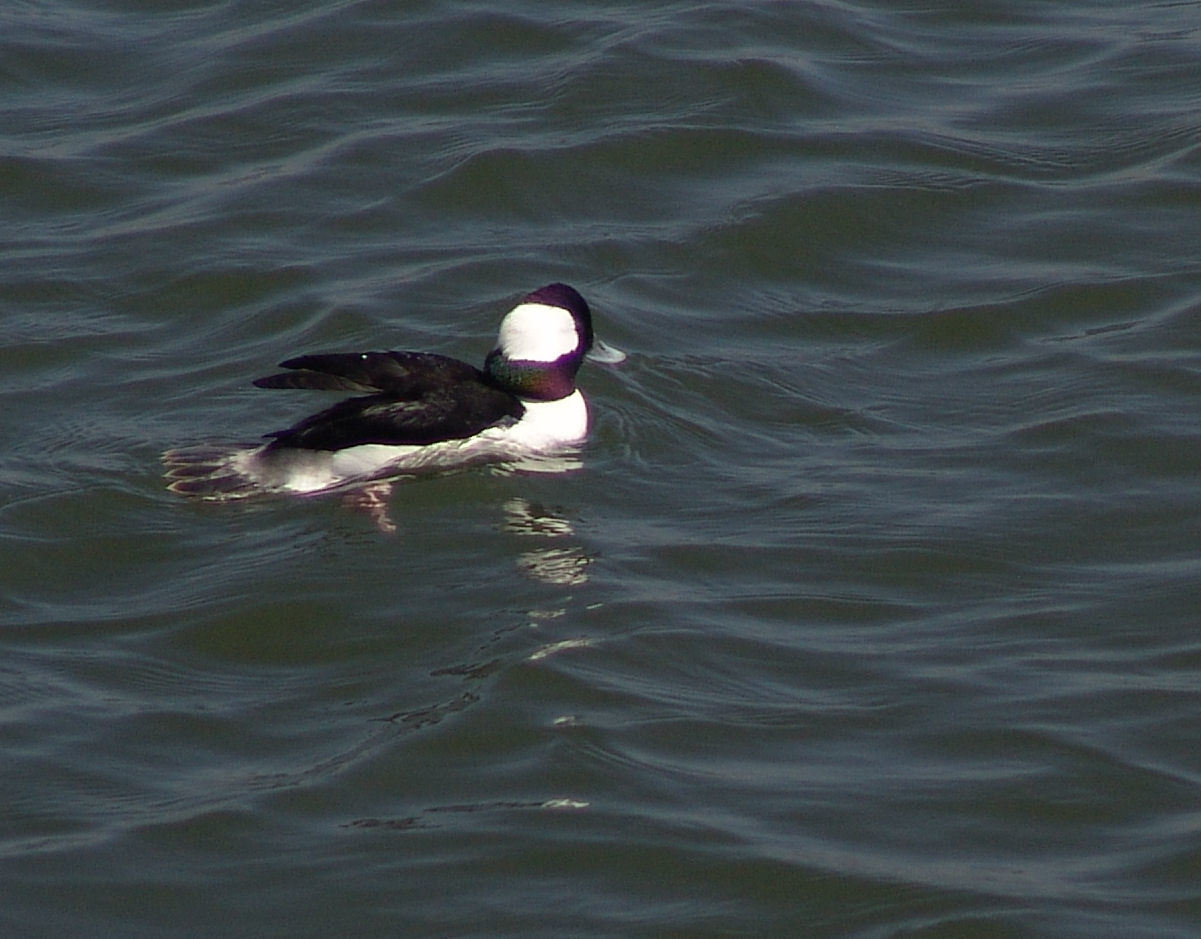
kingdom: Animalia
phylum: Chordata
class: Aves
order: Anseriformes
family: Anatidae
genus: Bucephala
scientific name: Bucephala albeola
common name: Bufflehead
